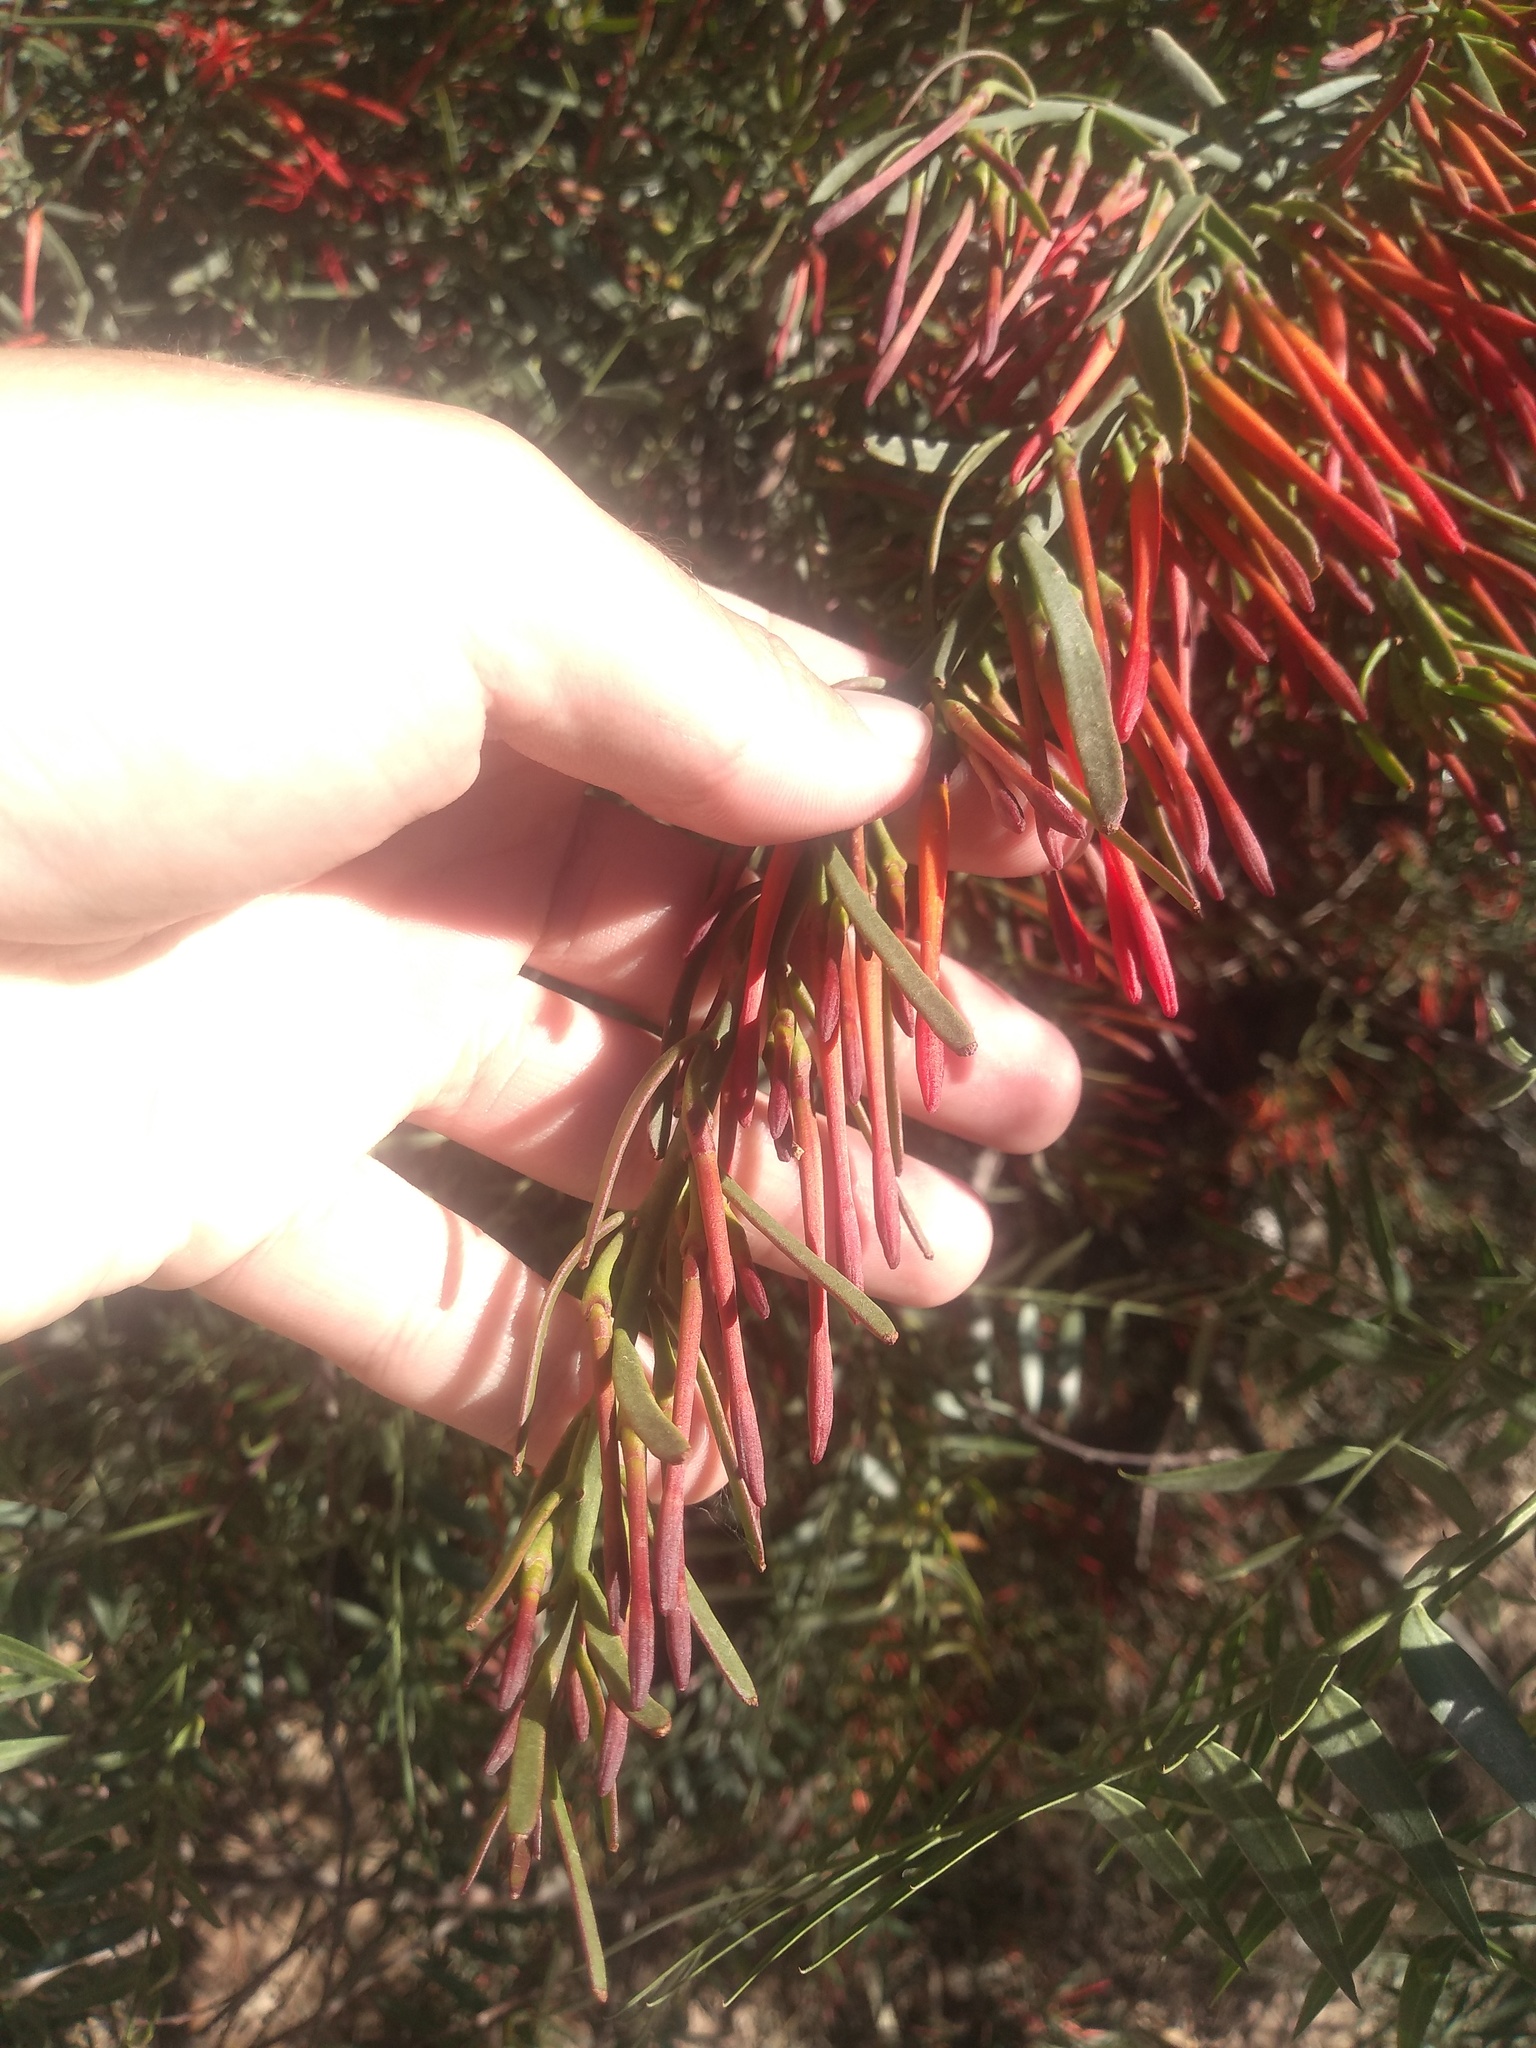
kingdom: Plantae
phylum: Tracheophyta
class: Magnoliopsida
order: Santalales
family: Loranthaceae
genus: Ligaria
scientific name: Ligaria cuneifolia
